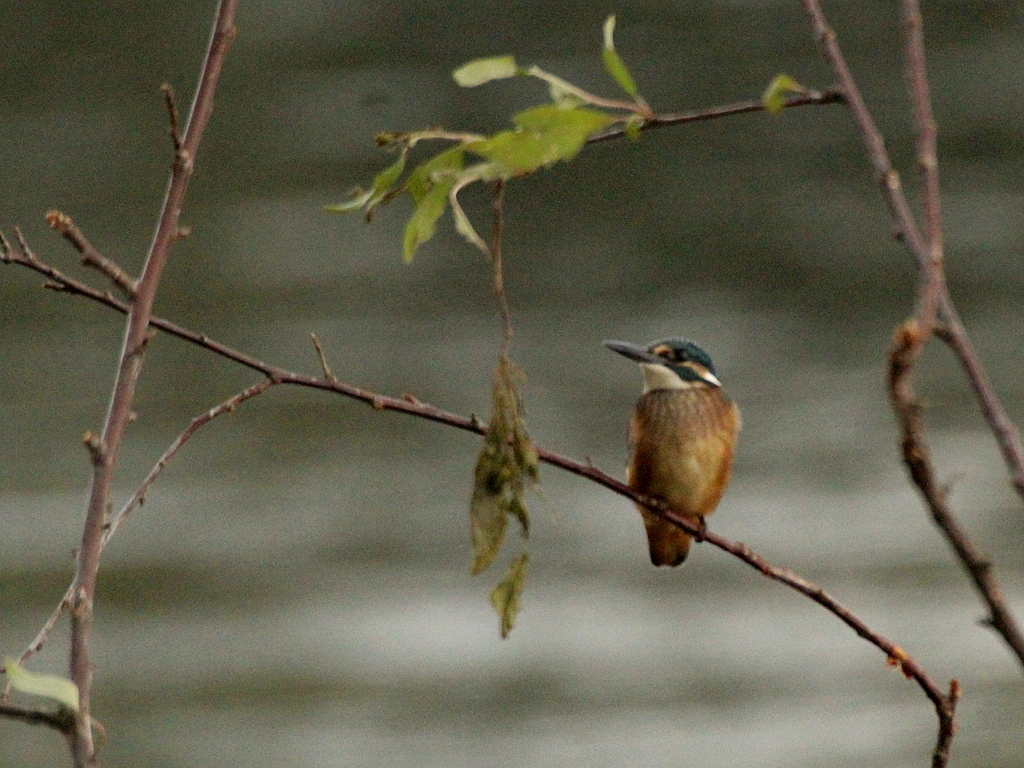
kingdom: Animalia
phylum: Chordata
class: Aves
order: Coraciiformes
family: Alcedinidae
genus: Alcedo
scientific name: Alcedo atthis
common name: Common kingfisher
